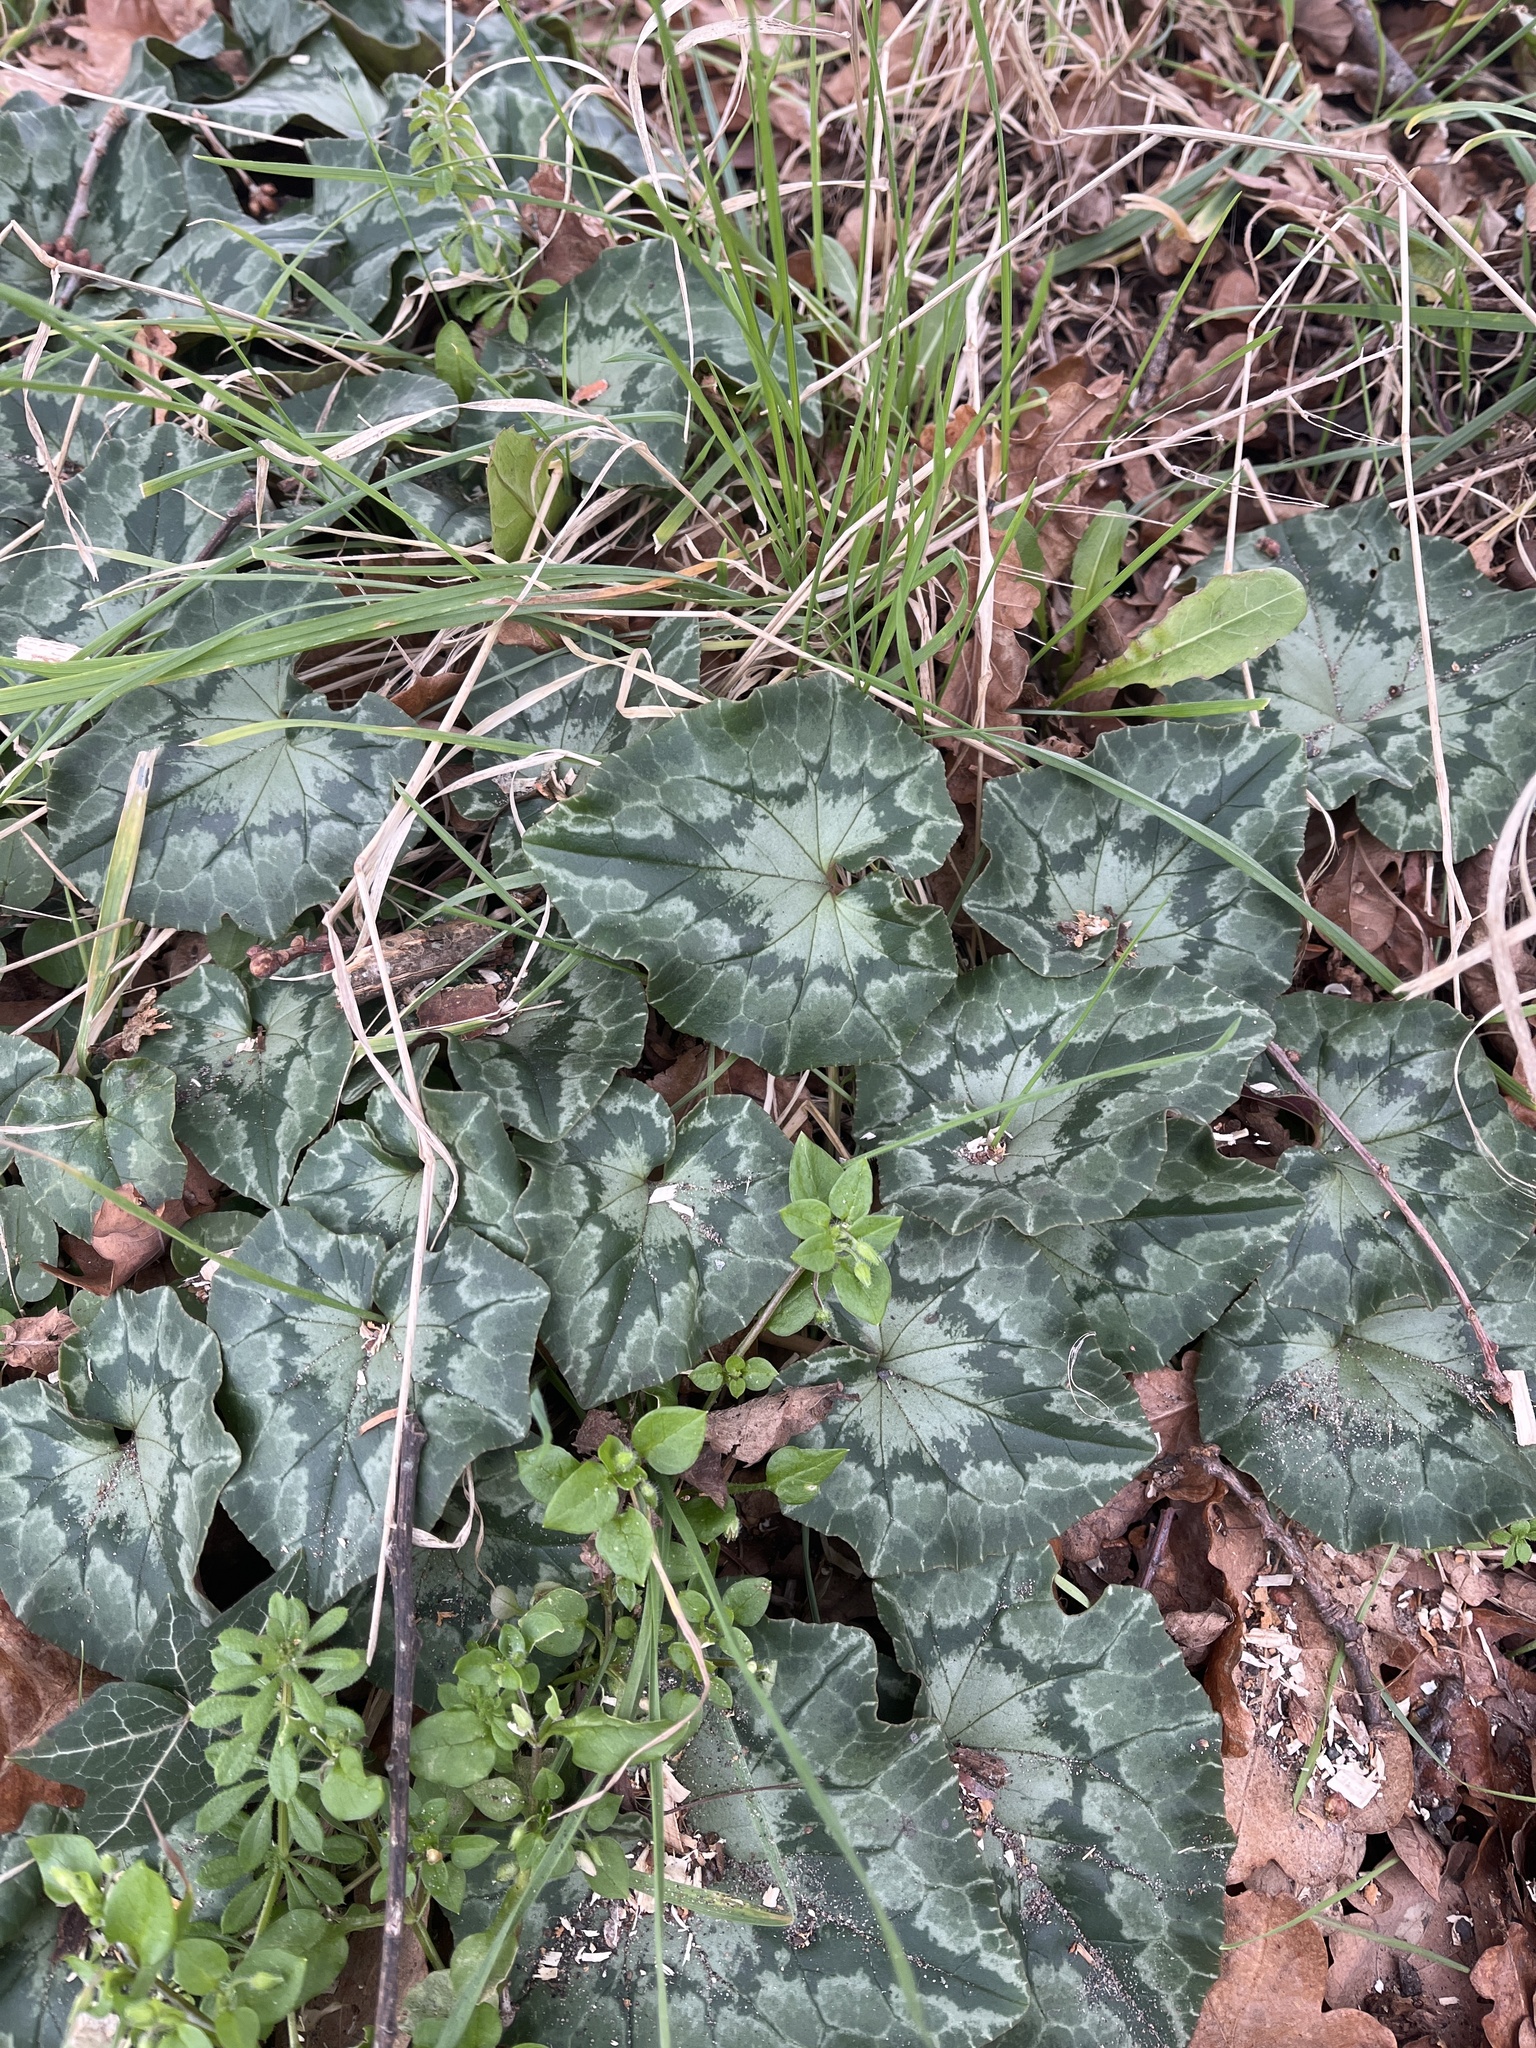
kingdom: Plantae
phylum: Tracheophyta
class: Magnoliopsida
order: Ericales
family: Primulaceae
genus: Cyclamen
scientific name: Cyclamen hederifolium
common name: Sowbread
